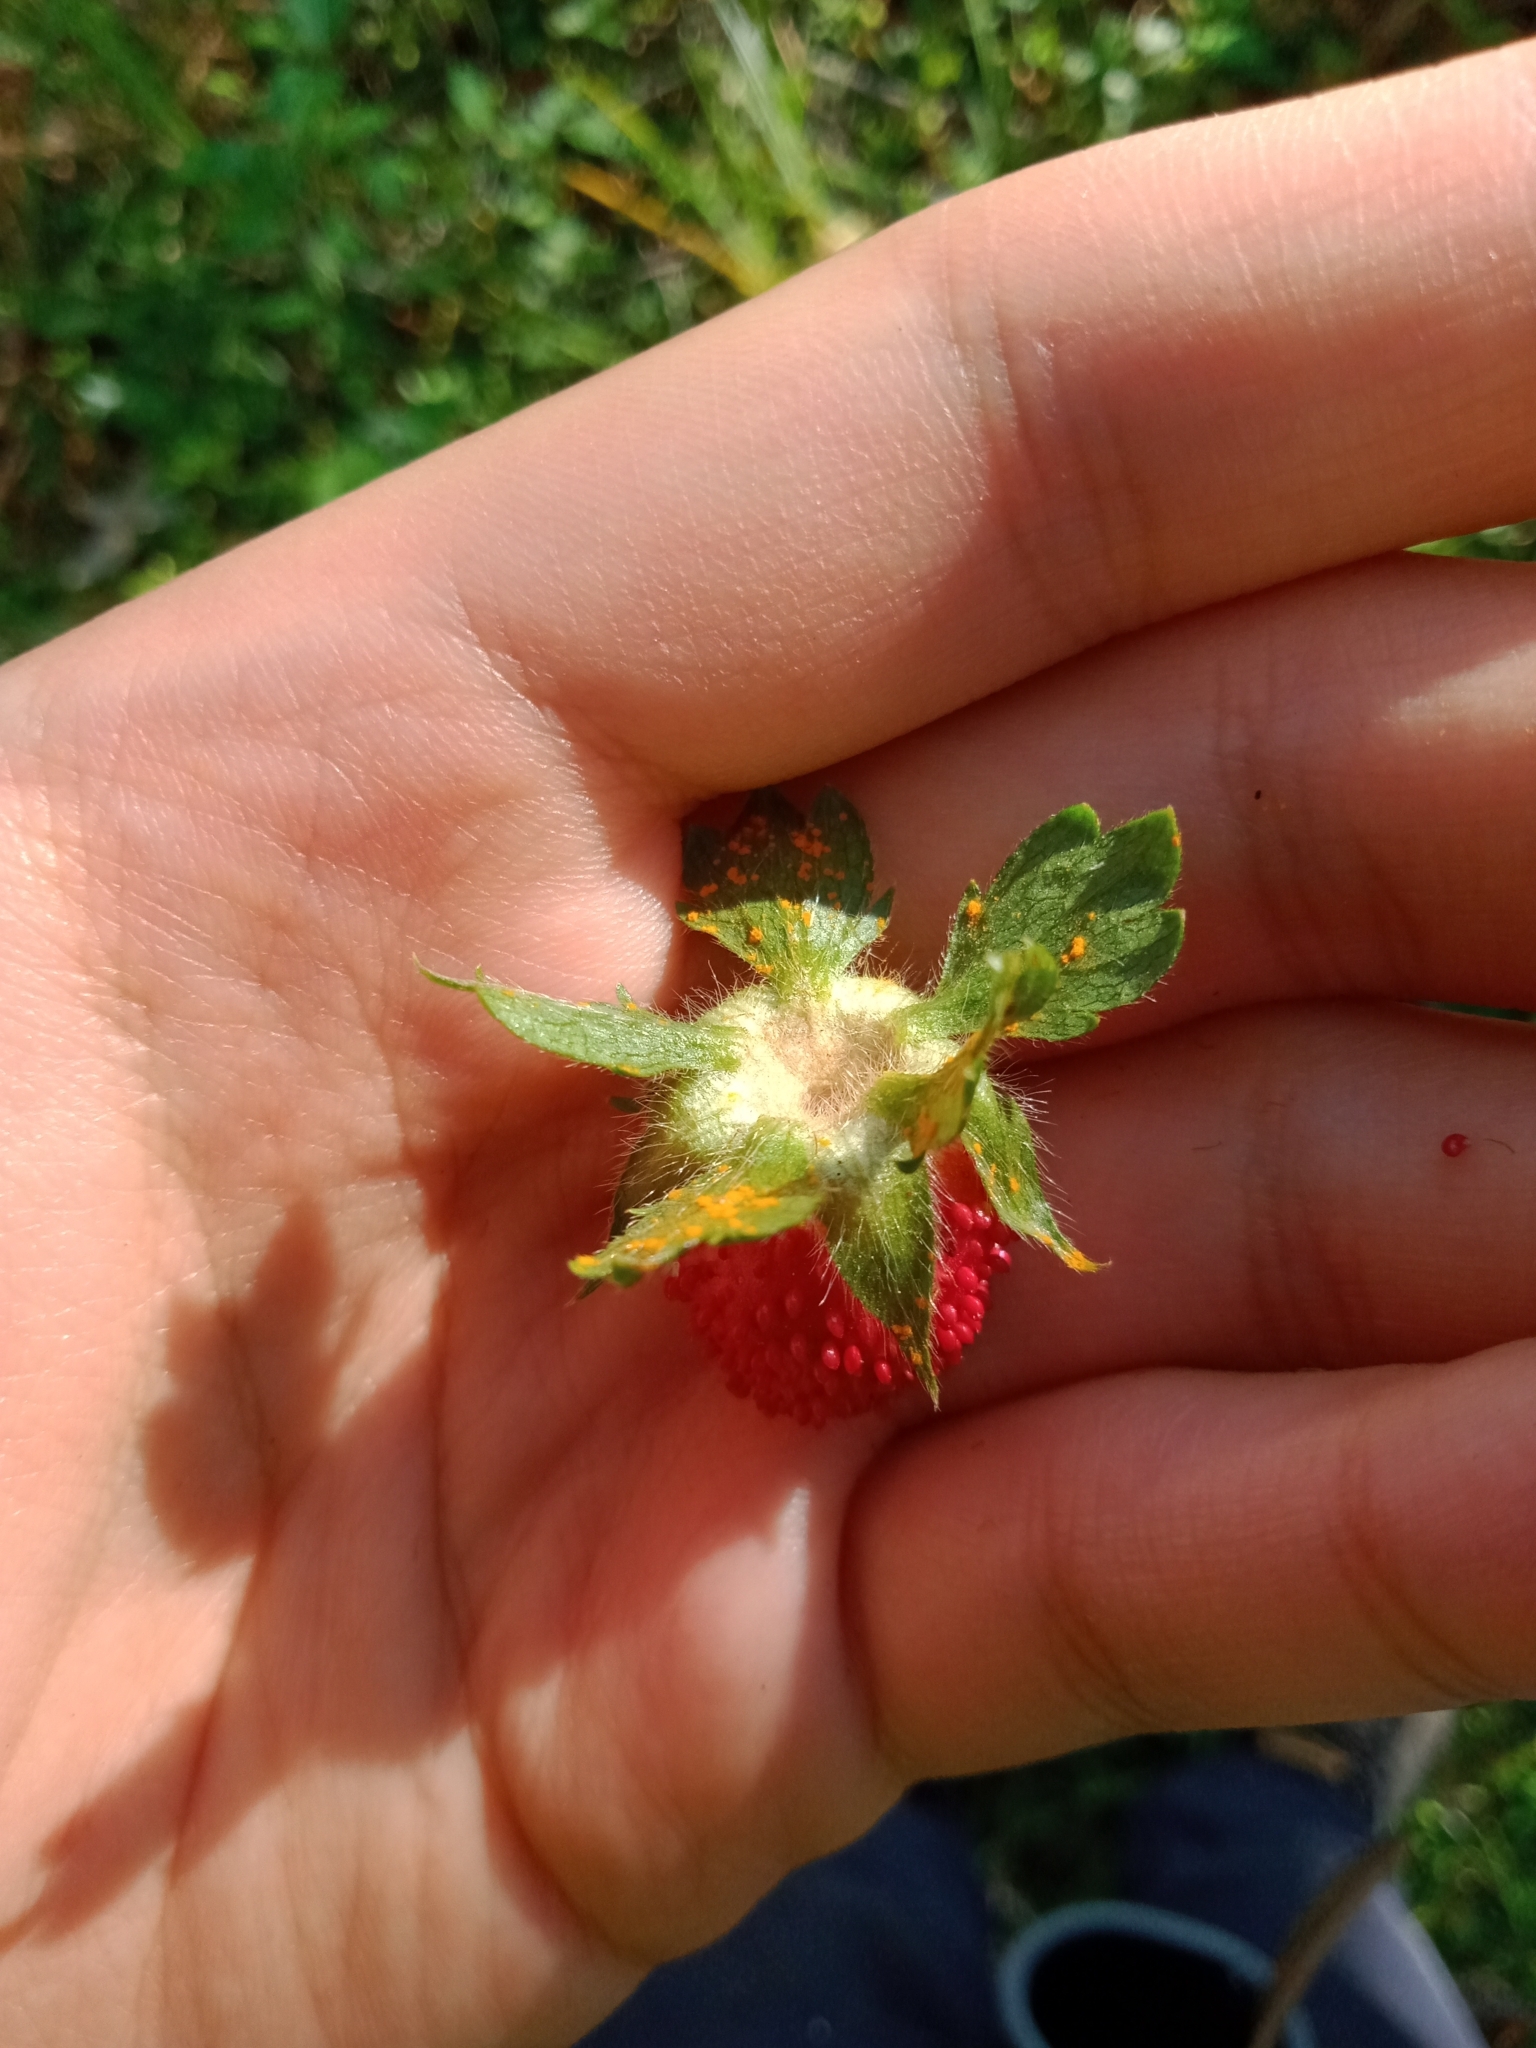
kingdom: Fungi
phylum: Basidiomycota
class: Pucciniomycetes
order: Pucciniales
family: Phragmidiaceae
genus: Phragmidium
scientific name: Phragmidium mexicanum
